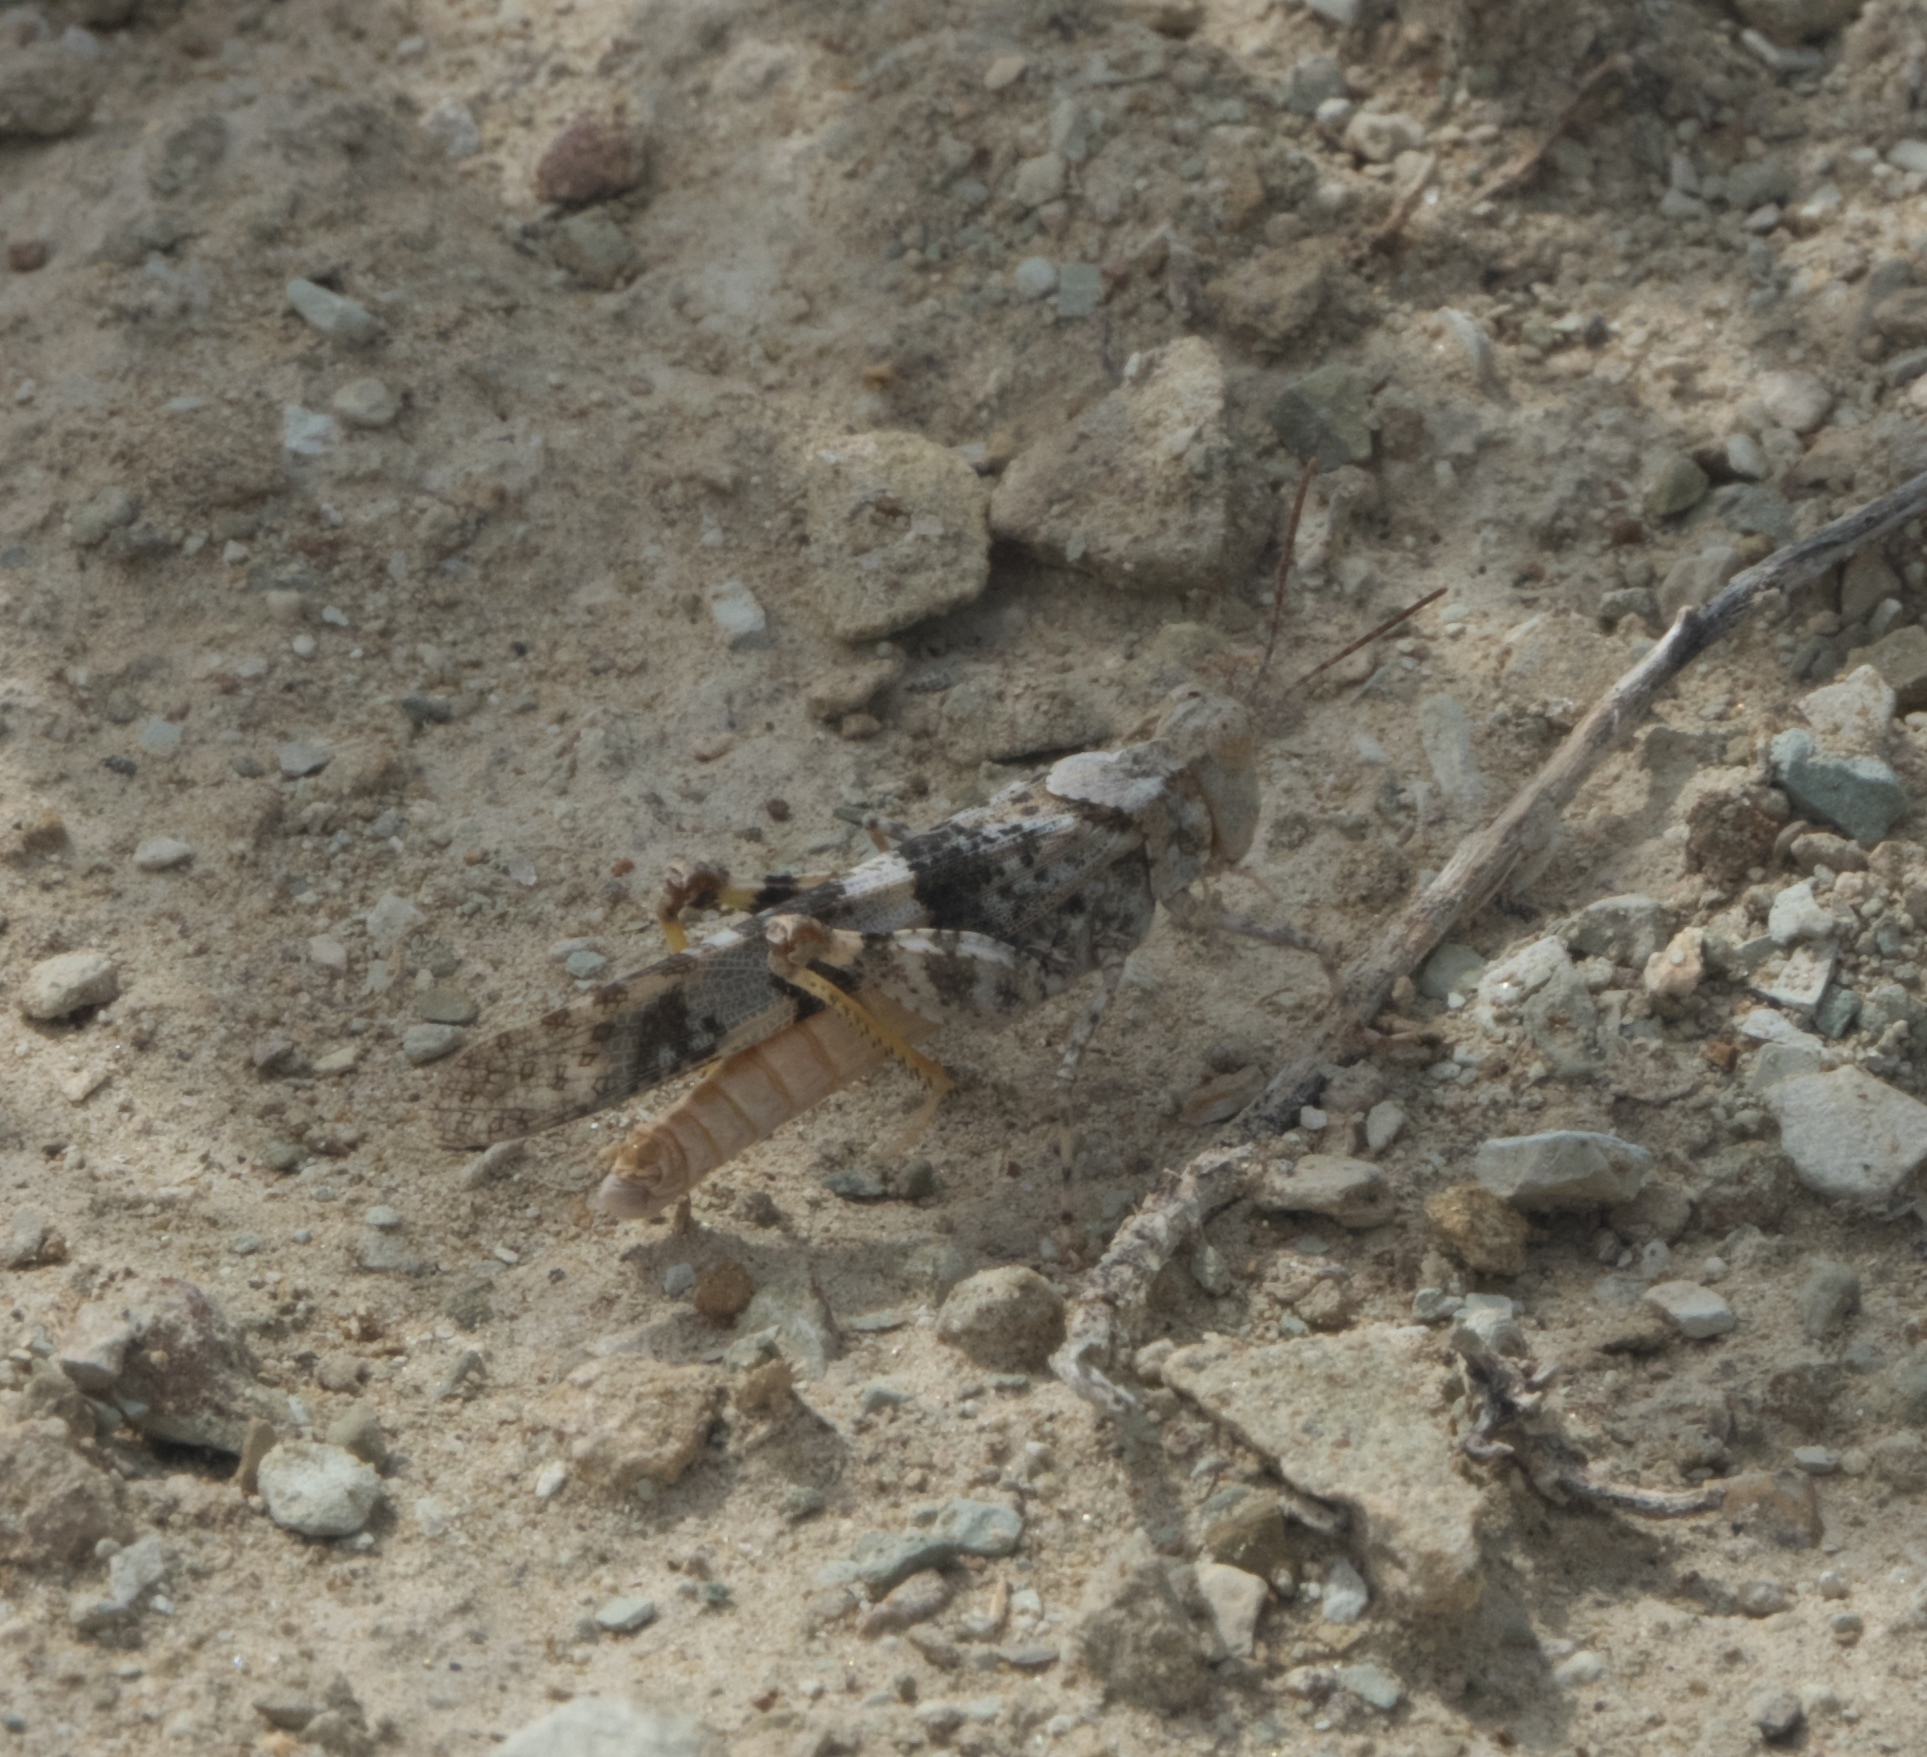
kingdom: Animalia
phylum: Arthropoda
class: Insecta
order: Orthoptera
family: Acrididae
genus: Trimerotropis
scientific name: Trimerotropis pallidipennis
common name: Pallid-winged grasshopper
